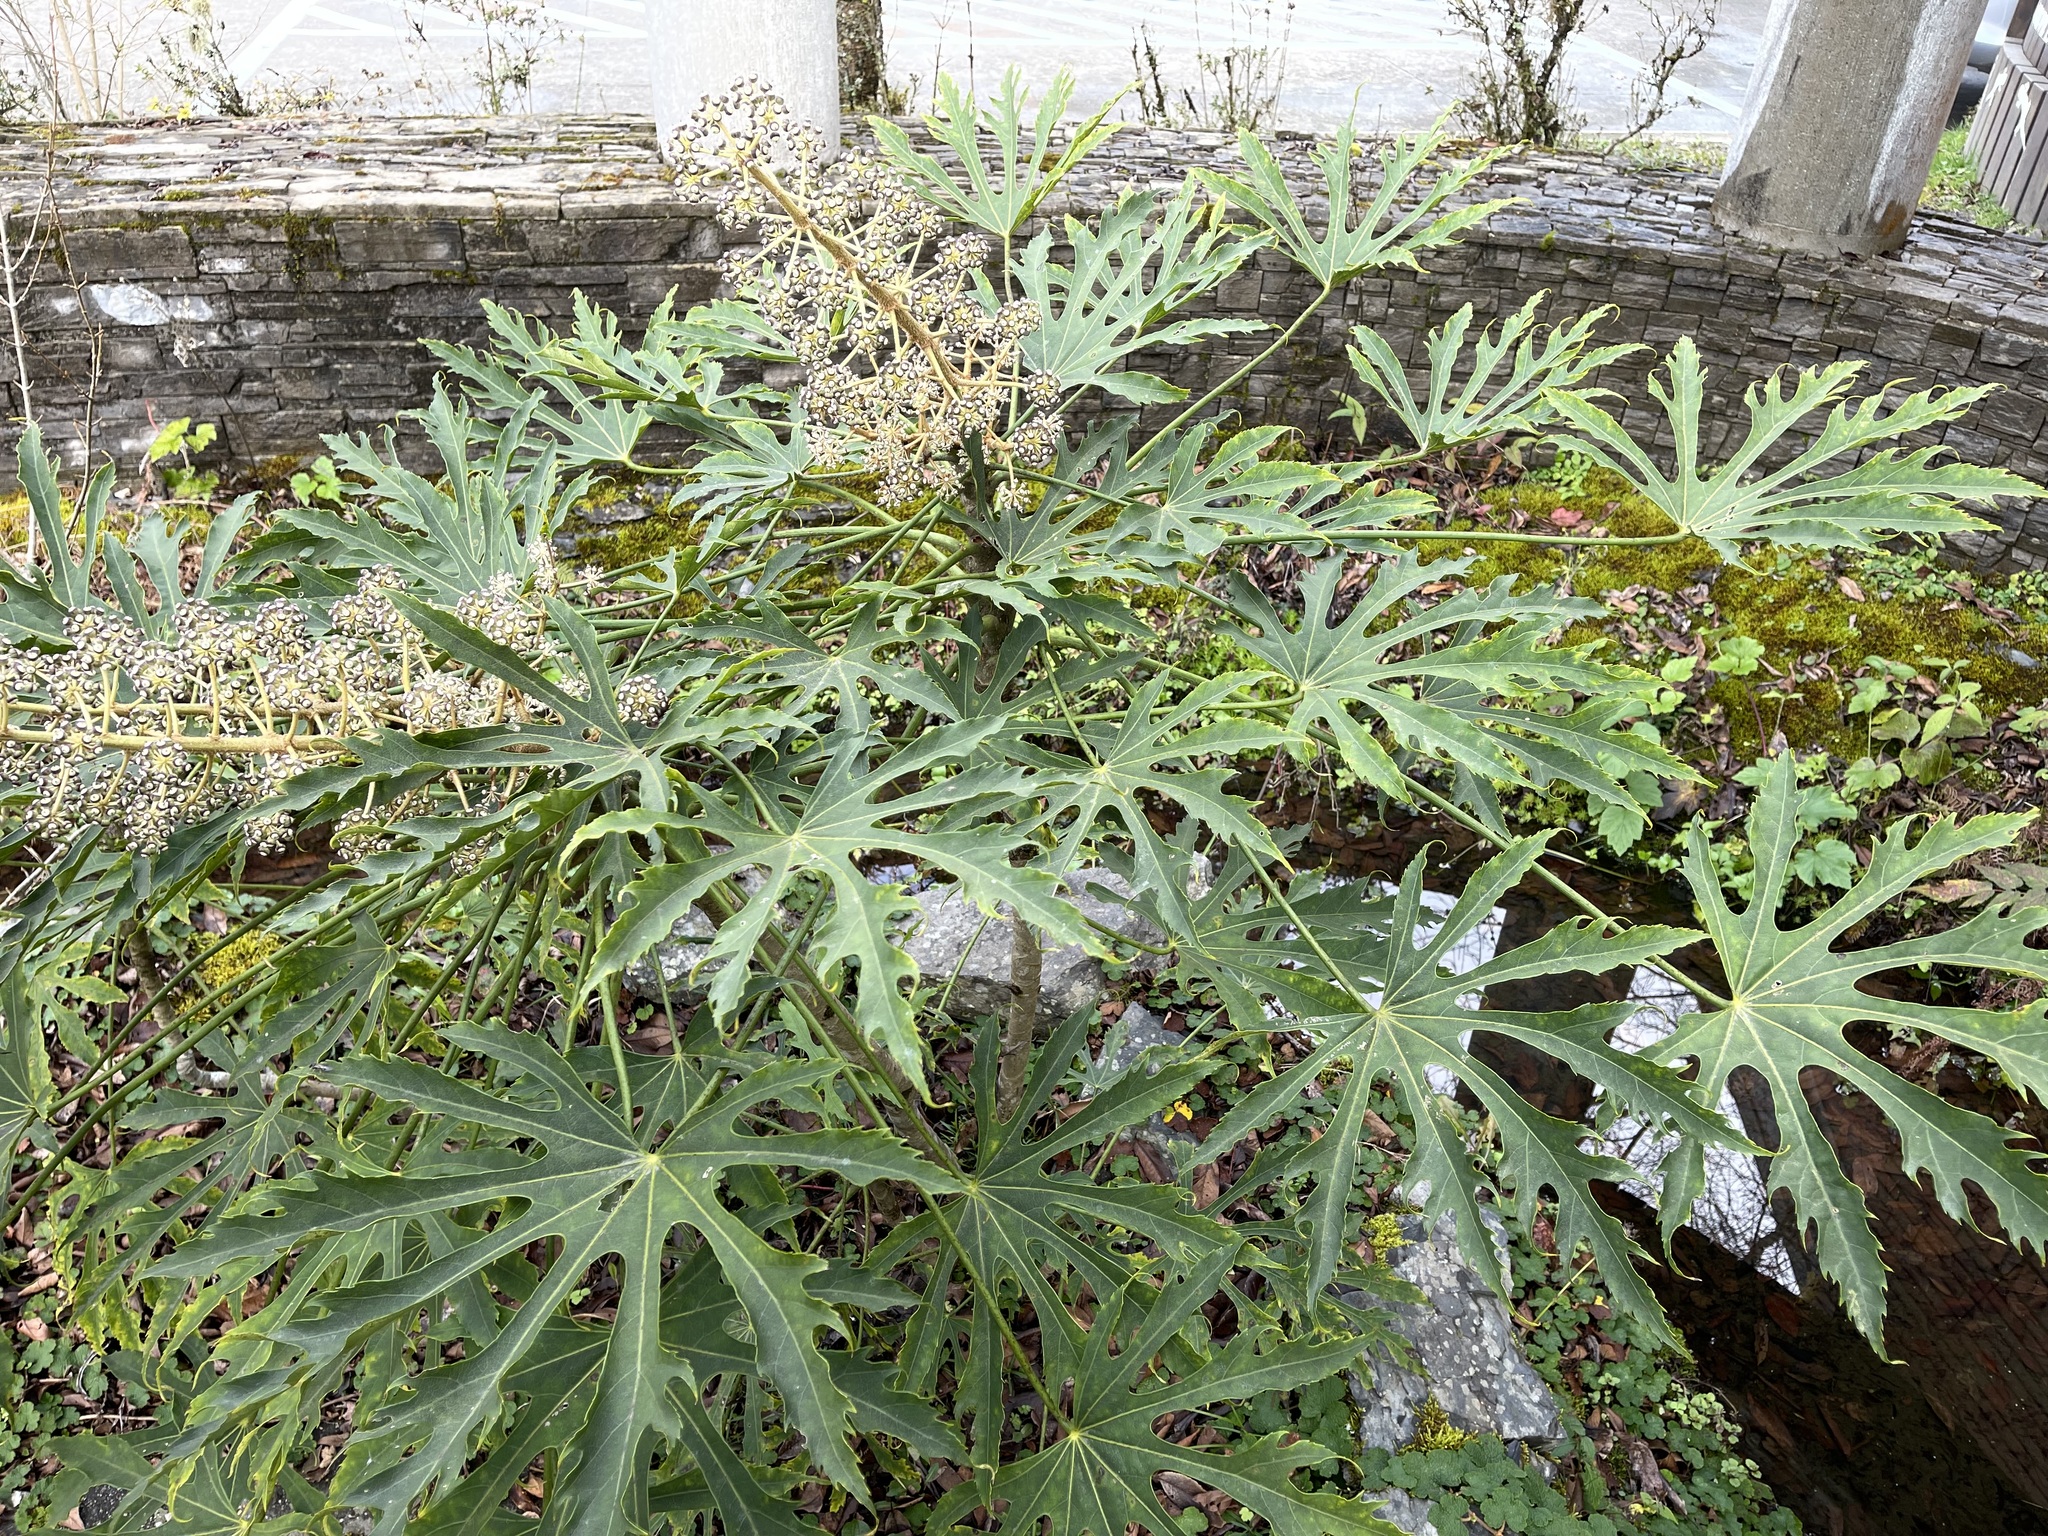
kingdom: Plantae
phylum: Tracheophyta
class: Magnoliopsida
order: Apiales
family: Araliaceae
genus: Fatsia
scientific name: Fatsia polycarpa
